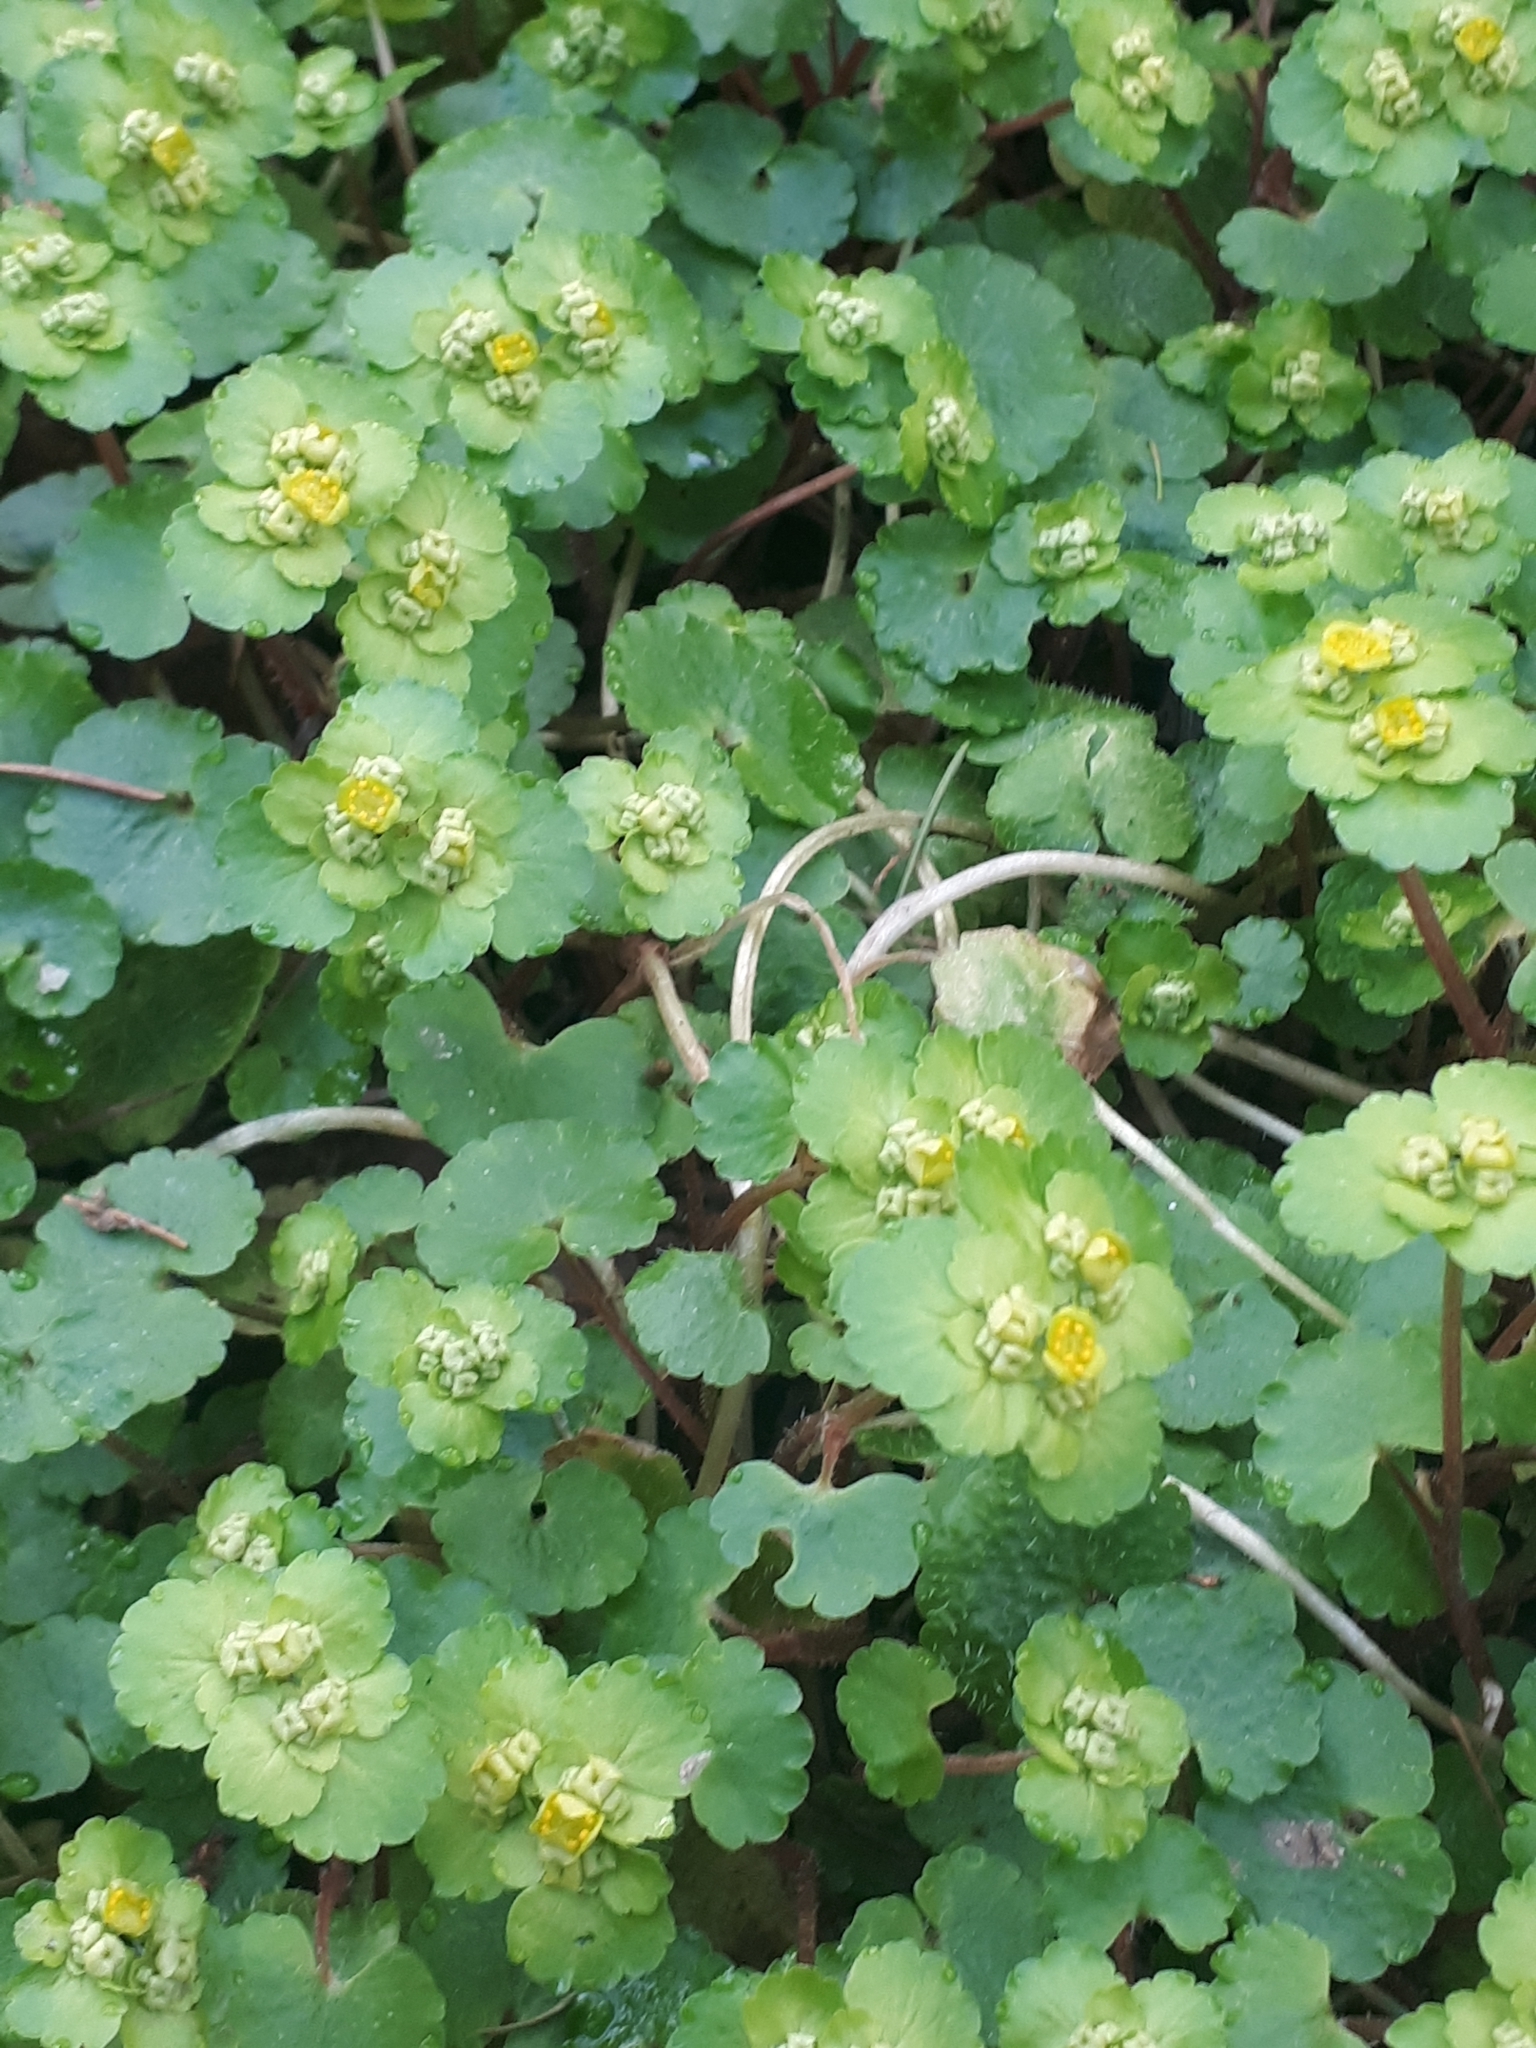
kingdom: Plantae
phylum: Tracheophyta
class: Magnoliopsida
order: Saxifragales
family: Saxifragaceae
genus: Chrysosplenium
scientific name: Chrysosplenium alternifolium
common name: Alternate-leaved golden-saxifrage
